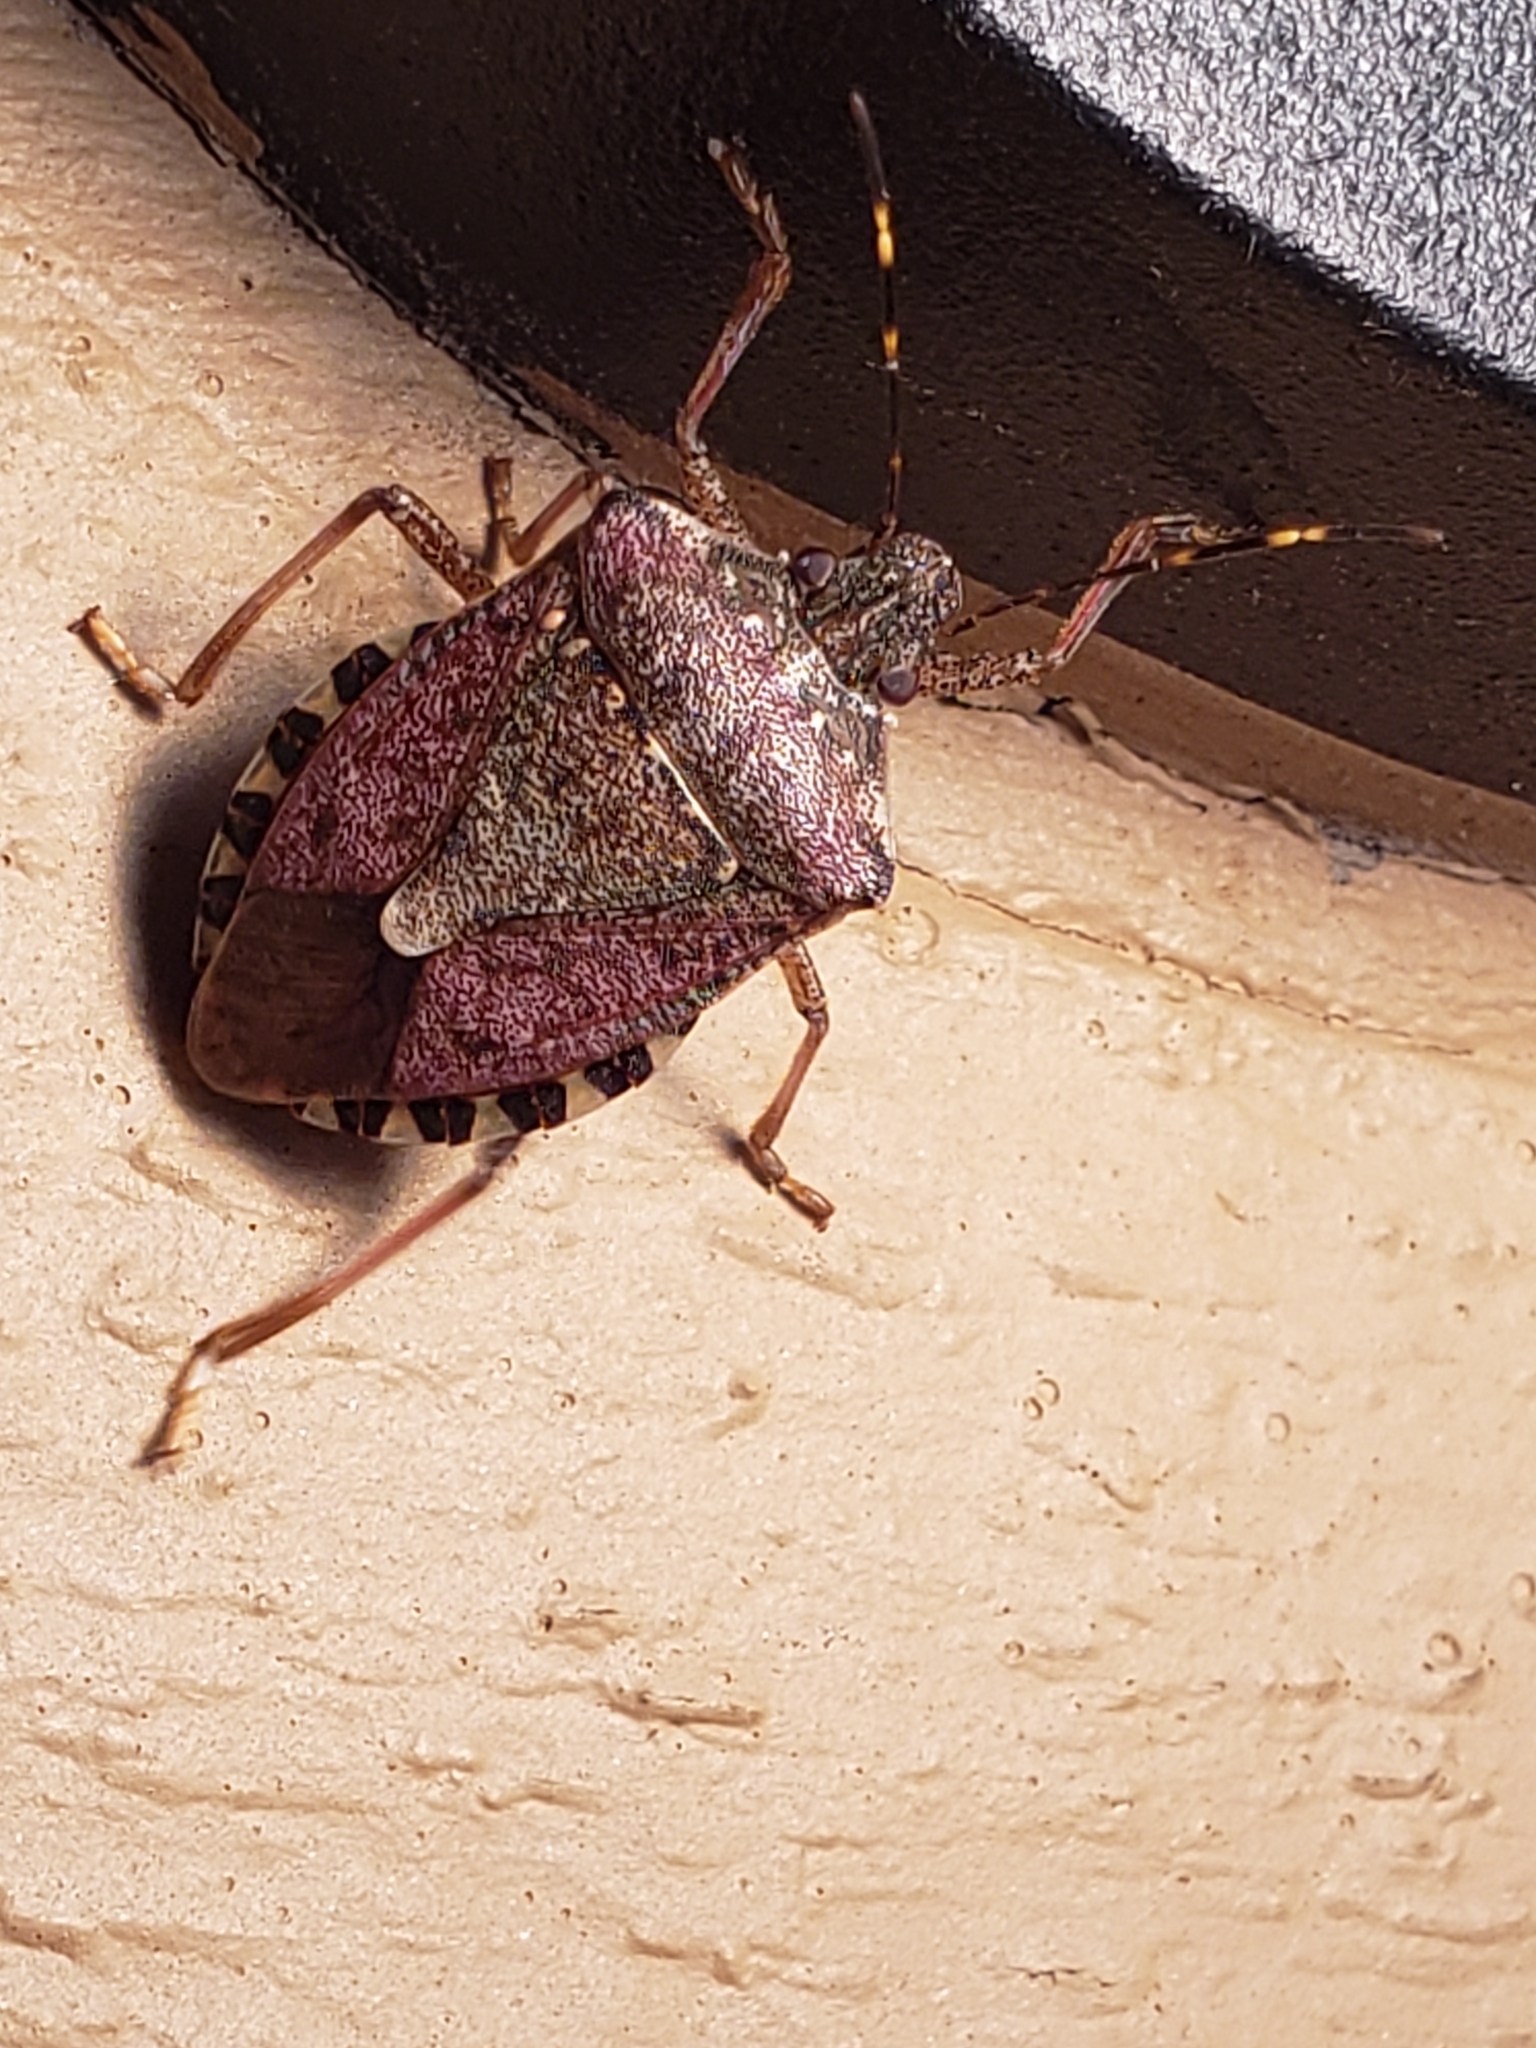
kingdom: Animalia
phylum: Arthropoda
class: Insecta
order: Hemiptera
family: Pentatomidae
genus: Halyomorpha
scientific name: Halyomorpha halys
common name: Brown marmorated stink bug
